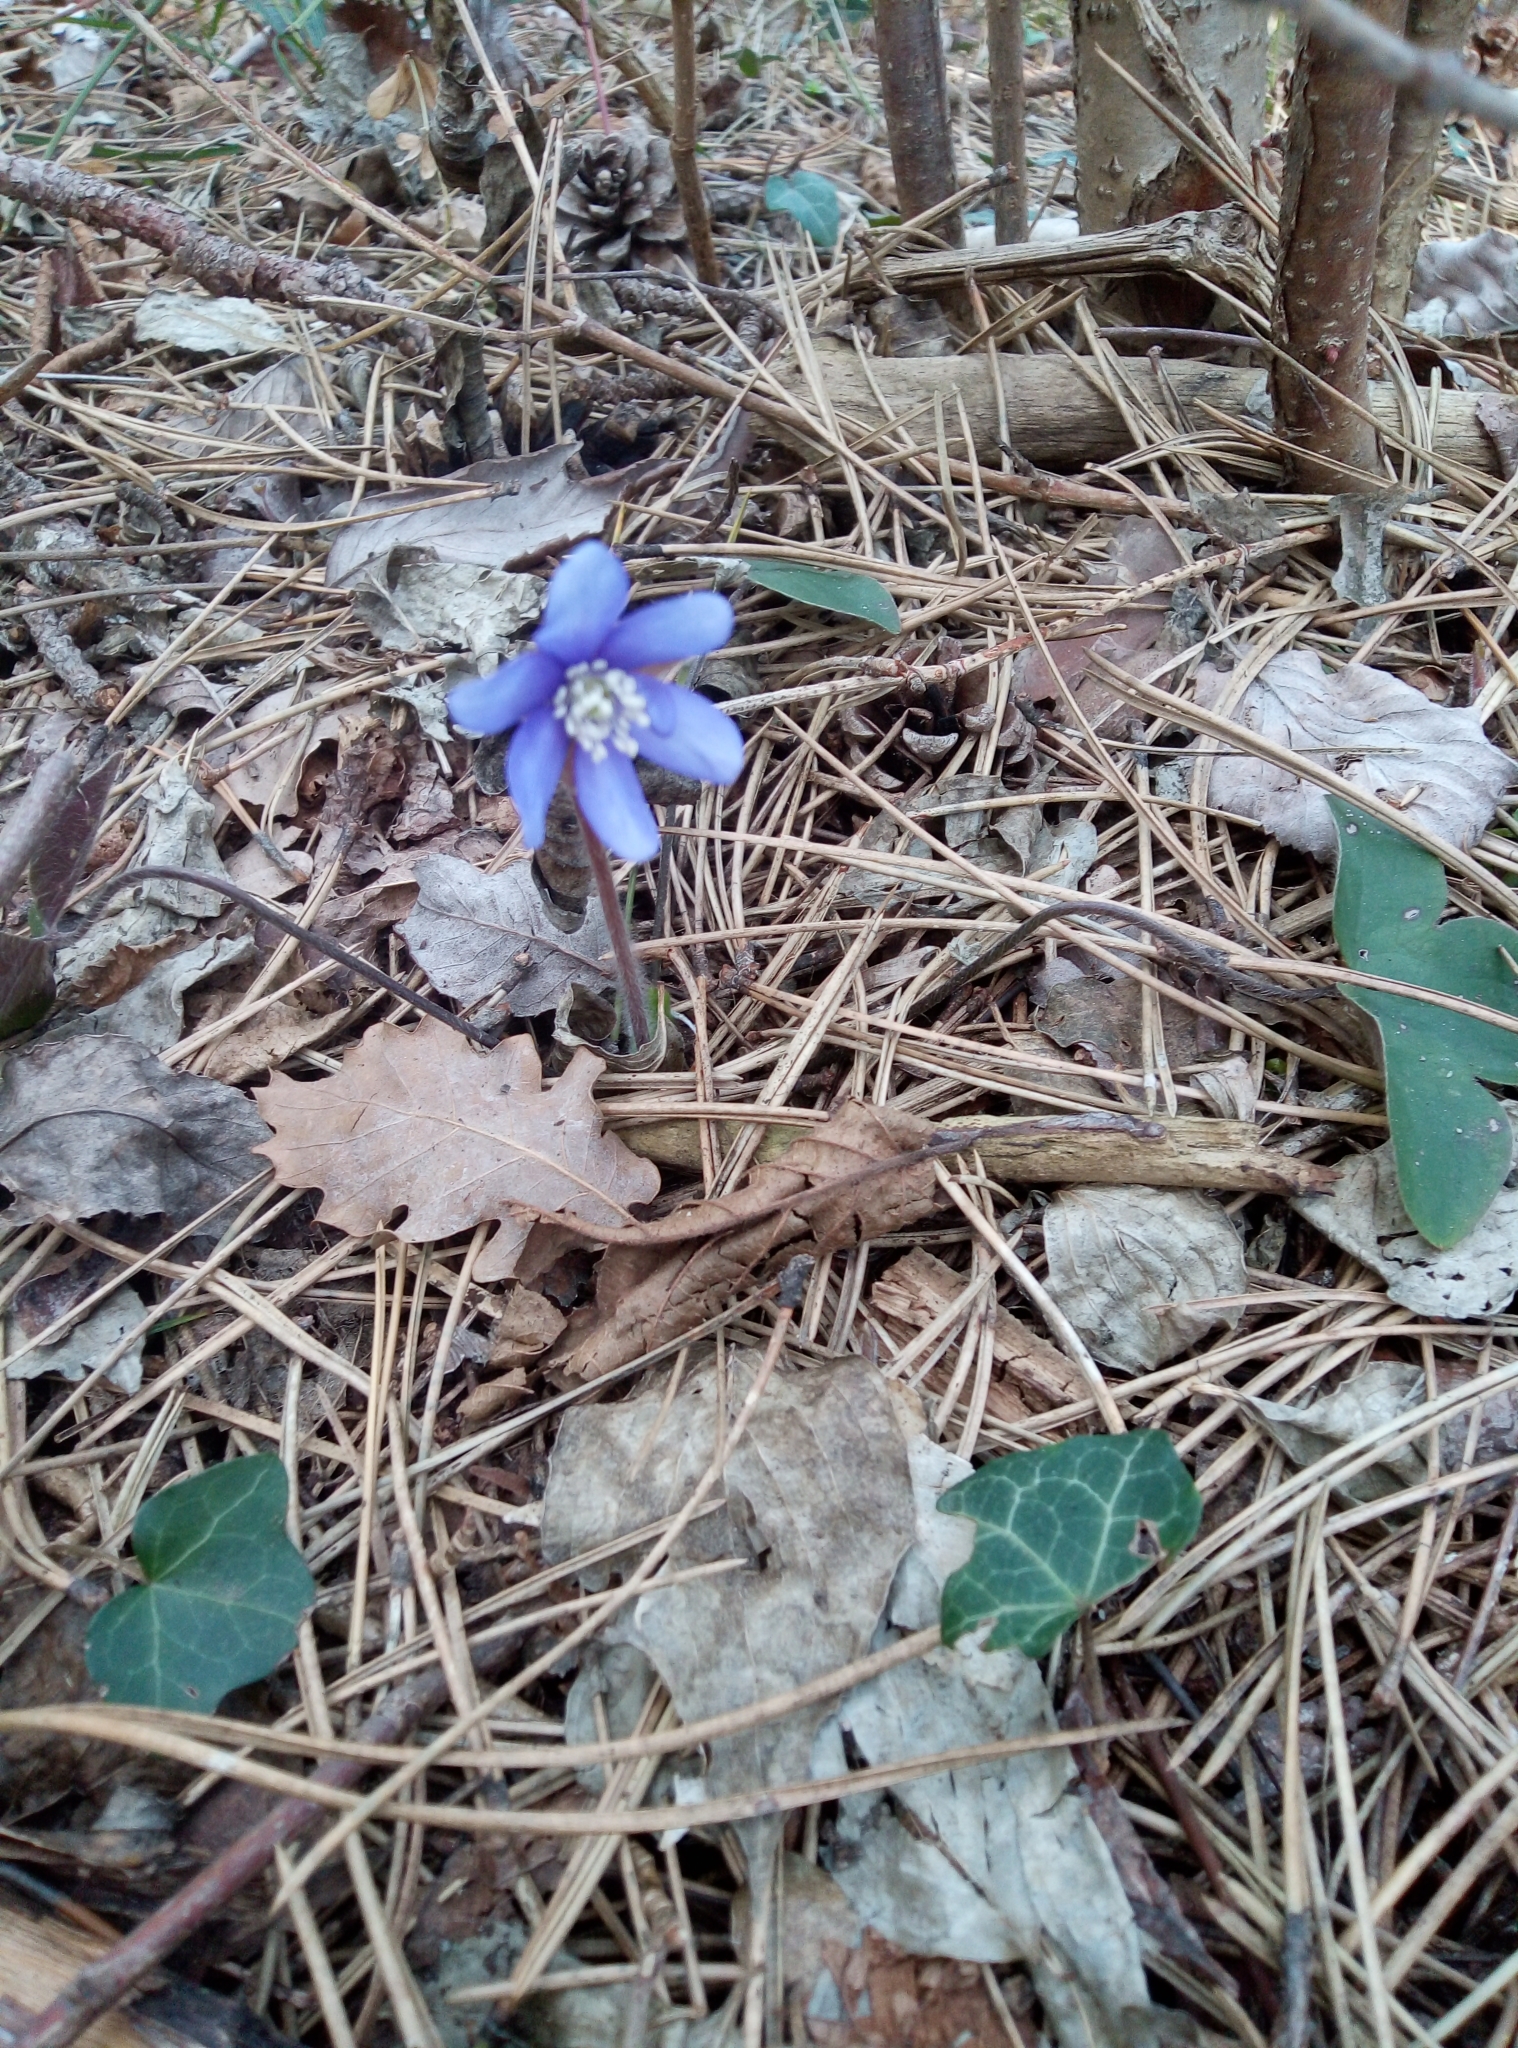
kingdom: Plantae
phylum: Tracheophyta
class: Magnoliopsida
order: Ranunculales
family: Ranunculaceae
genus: Hepatica
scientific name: Hepatica nobilis
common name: Liverleaf
